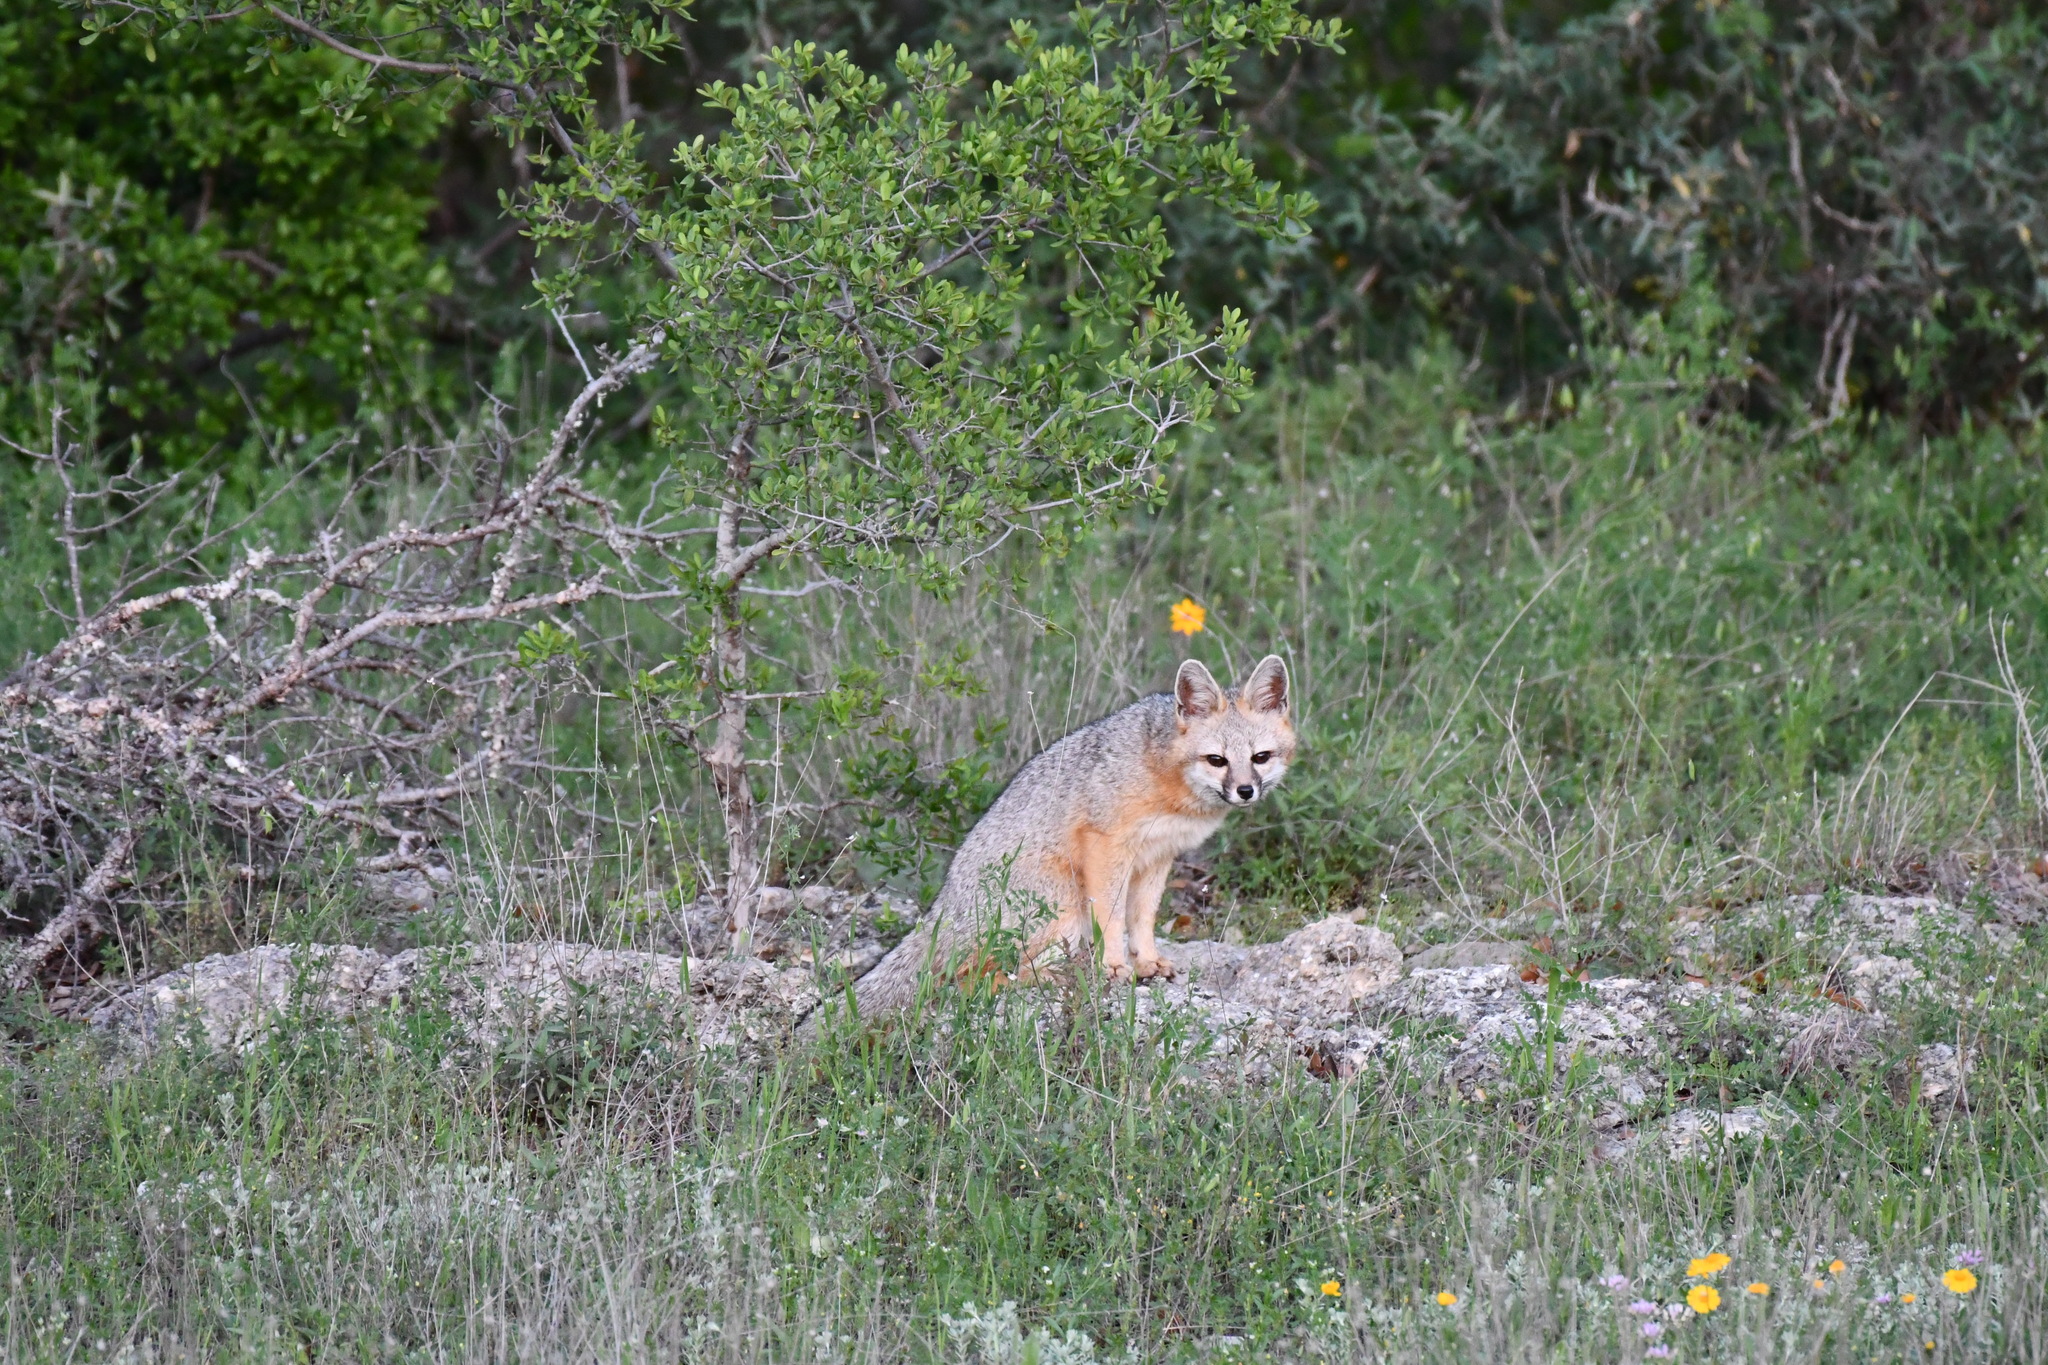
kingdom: Animalia
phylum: Chordata
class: Mammalia
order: Carnivora
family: Canidae
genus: Urocyon
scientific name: Urocyon cinereoargenteus
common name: Gray fox
